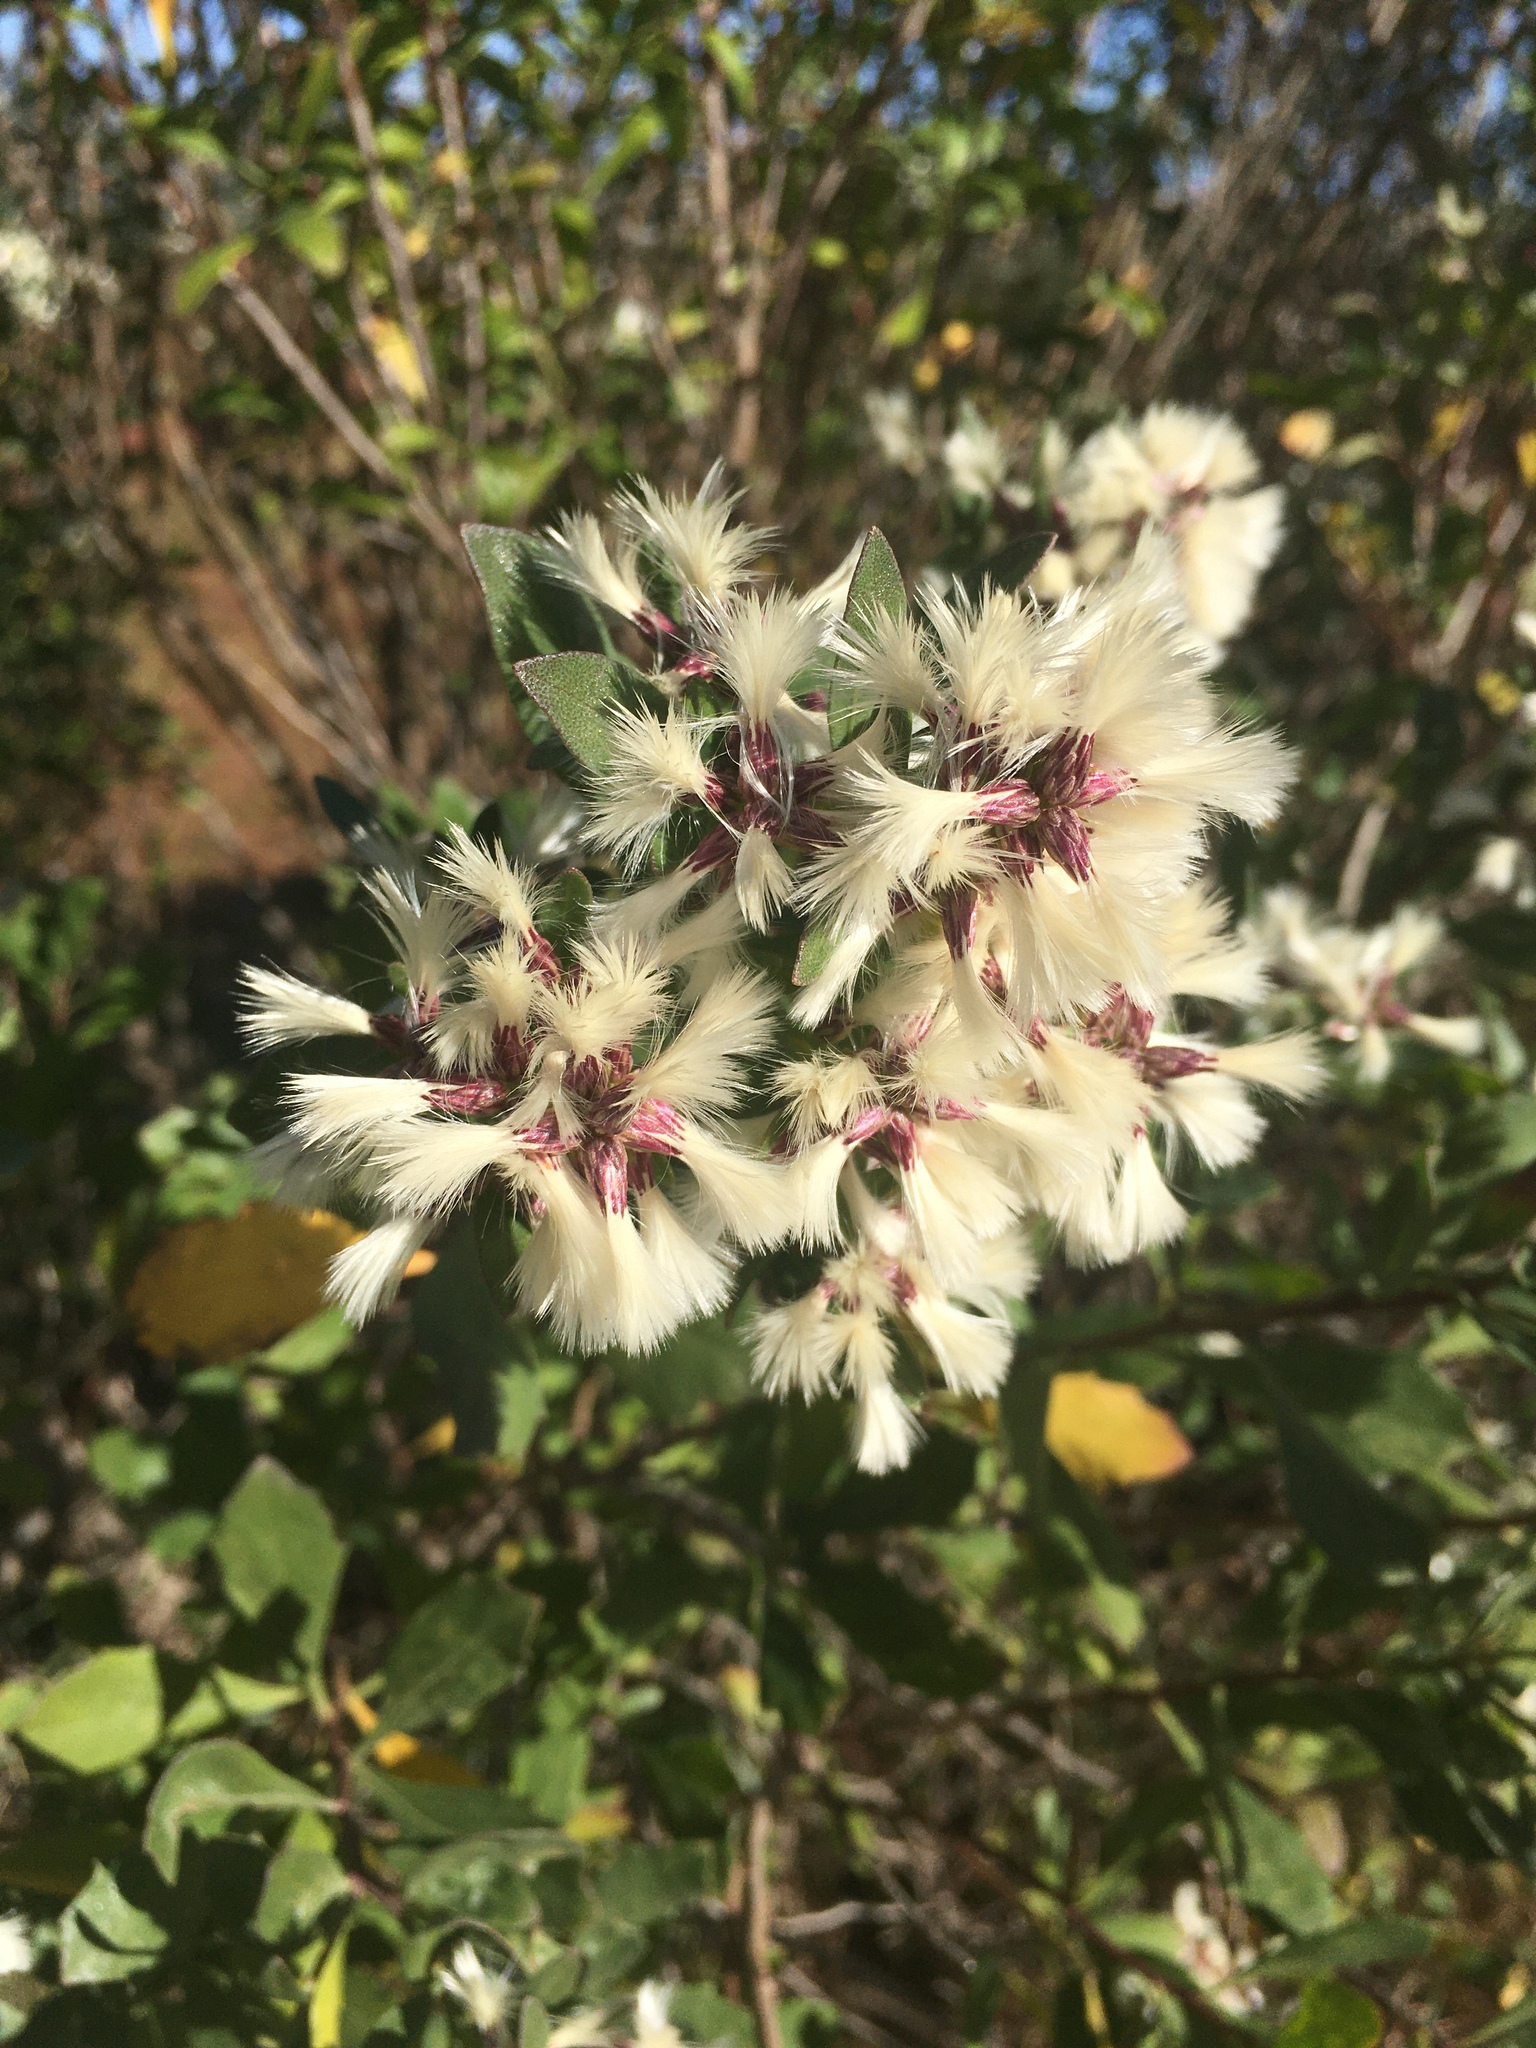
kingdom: Plantae
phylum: Tracheophyta
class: Magnoliopsida
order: Asterales
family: Asteraceae
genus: Baccharis
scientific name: Baccharis halimifolia
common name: Eastern baccharis
